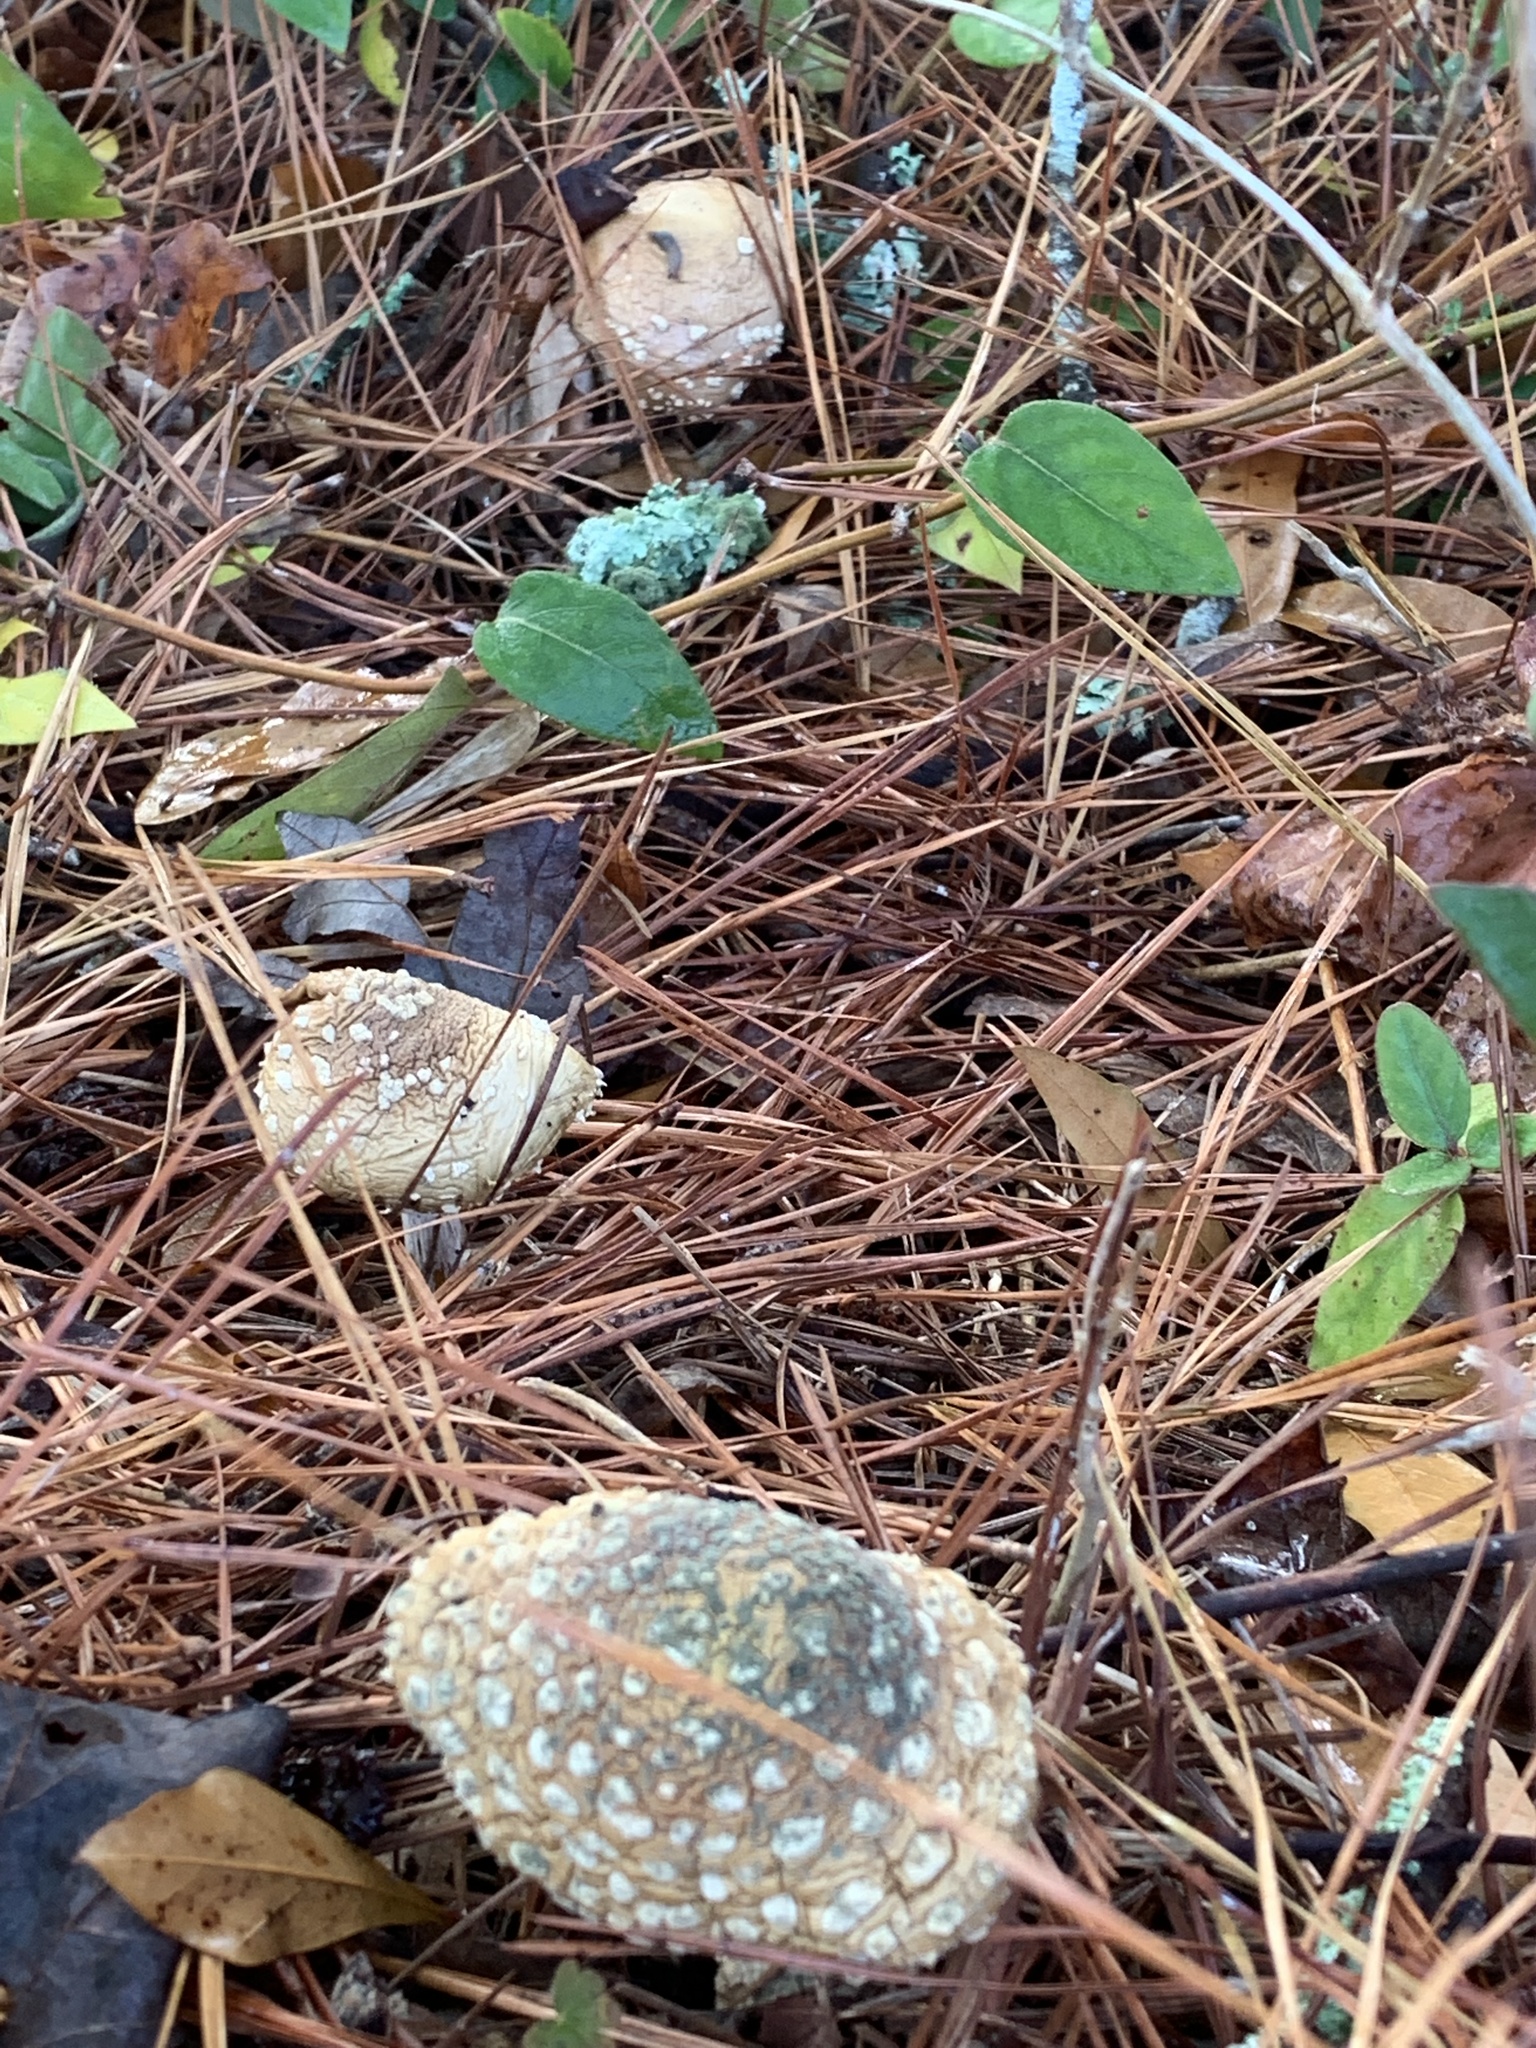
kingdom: Fungi
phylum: Basidiomycota
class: Agaricomycetes
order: Agaricales
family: Amanitaceae
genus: Amanita
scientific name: Amanita persicina
